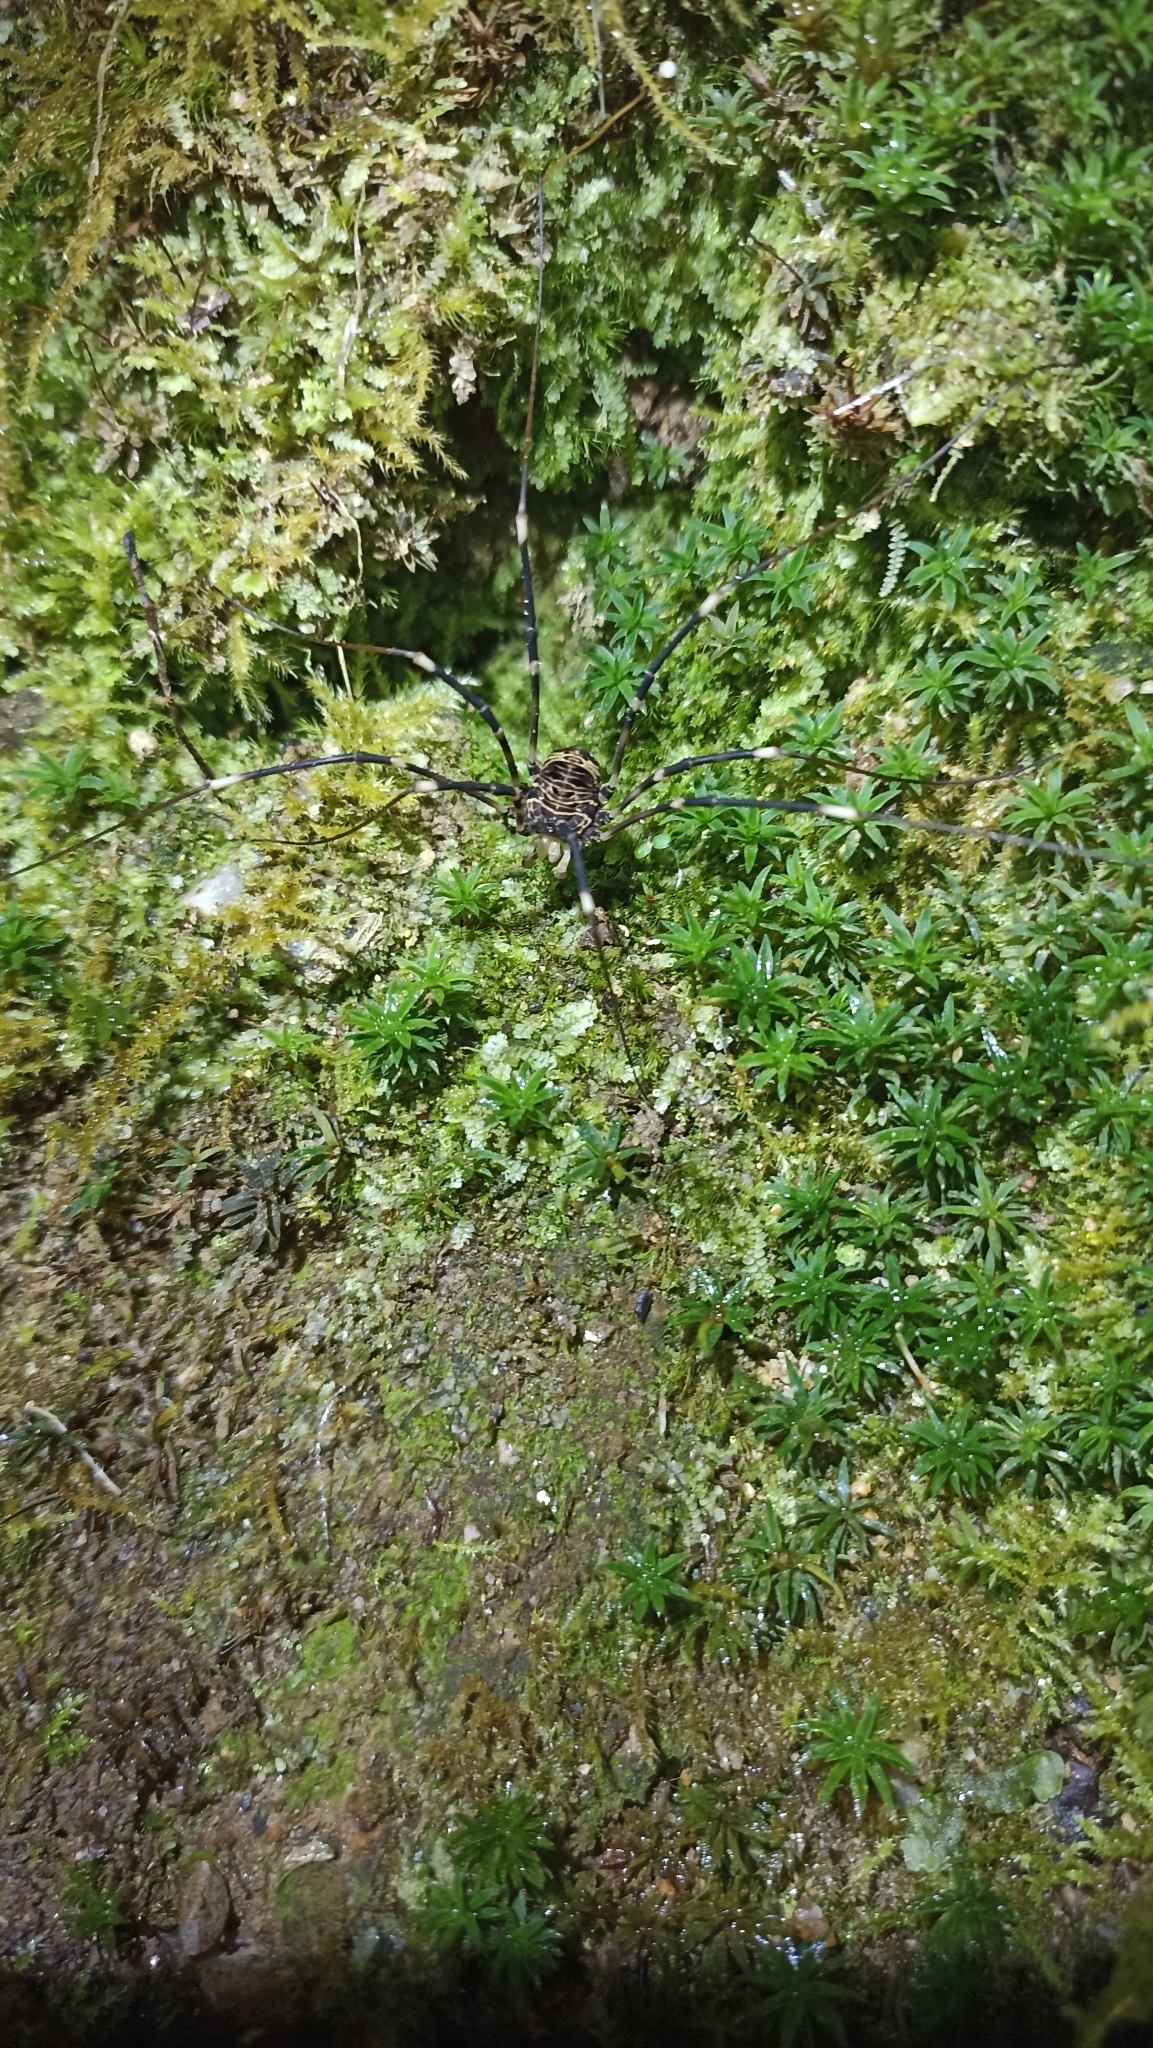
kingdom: Animalia
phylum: Arthropoda
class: Arachnida
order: Opiliones
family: Sclerosomatidae
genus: Gyas
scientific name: Gyas titanus
